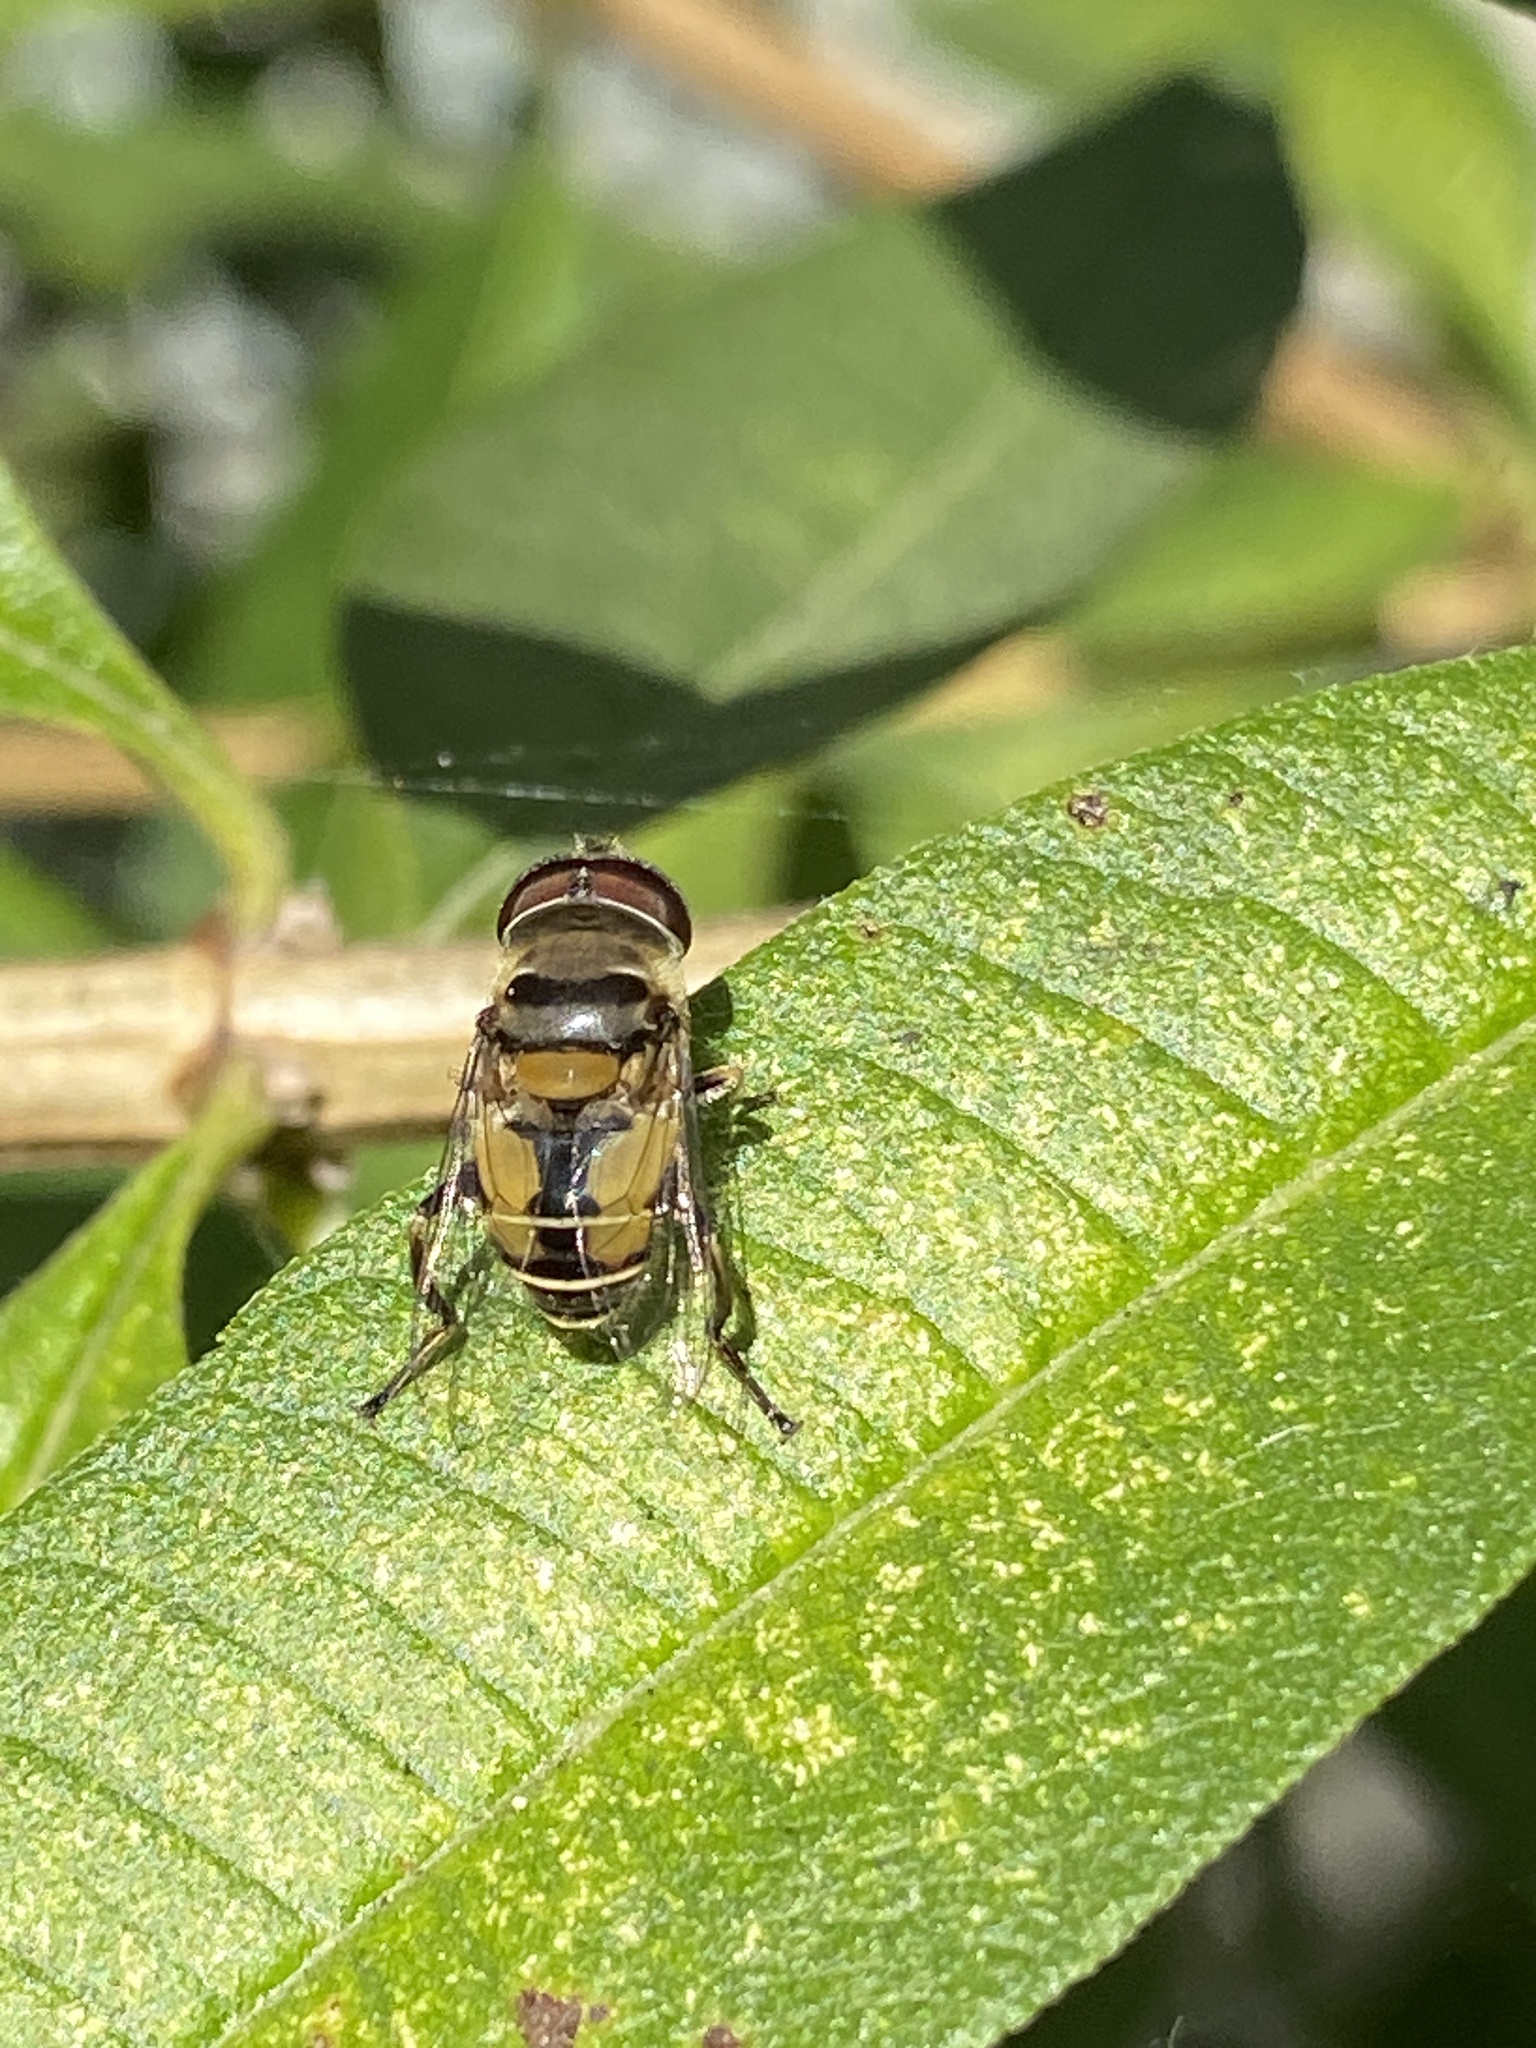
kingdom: Animalia
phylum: Arthropoda
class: Insecta
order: Diptera
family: Syrphidae
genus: Palpada
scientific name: Palpada alhambra
